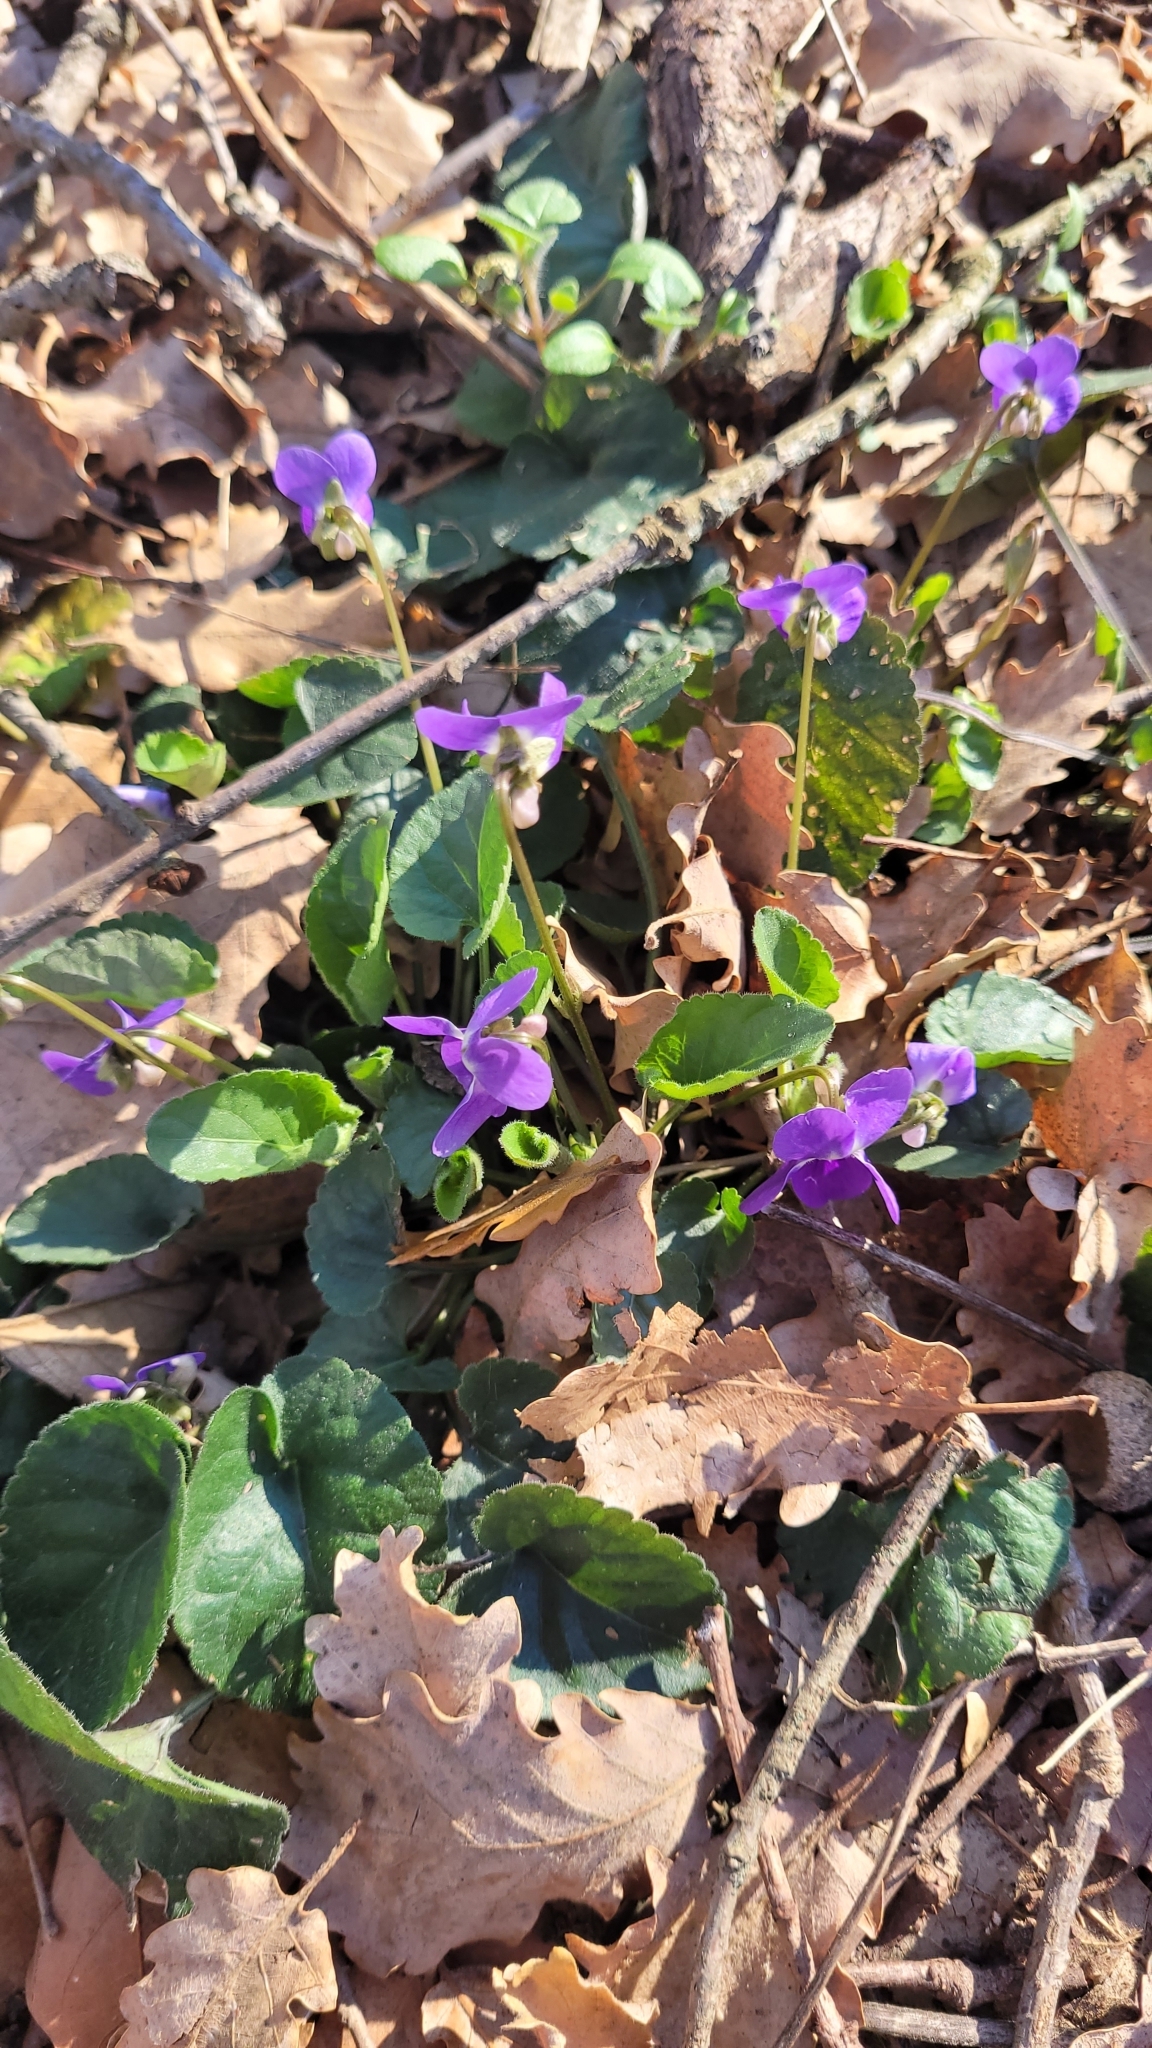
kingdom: Plantae
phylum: Tracheophyta
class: Magnoliopsida
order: Malpighiales
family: Violaceae
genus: Viola
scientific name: Viola odorata
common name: Sweet violet
